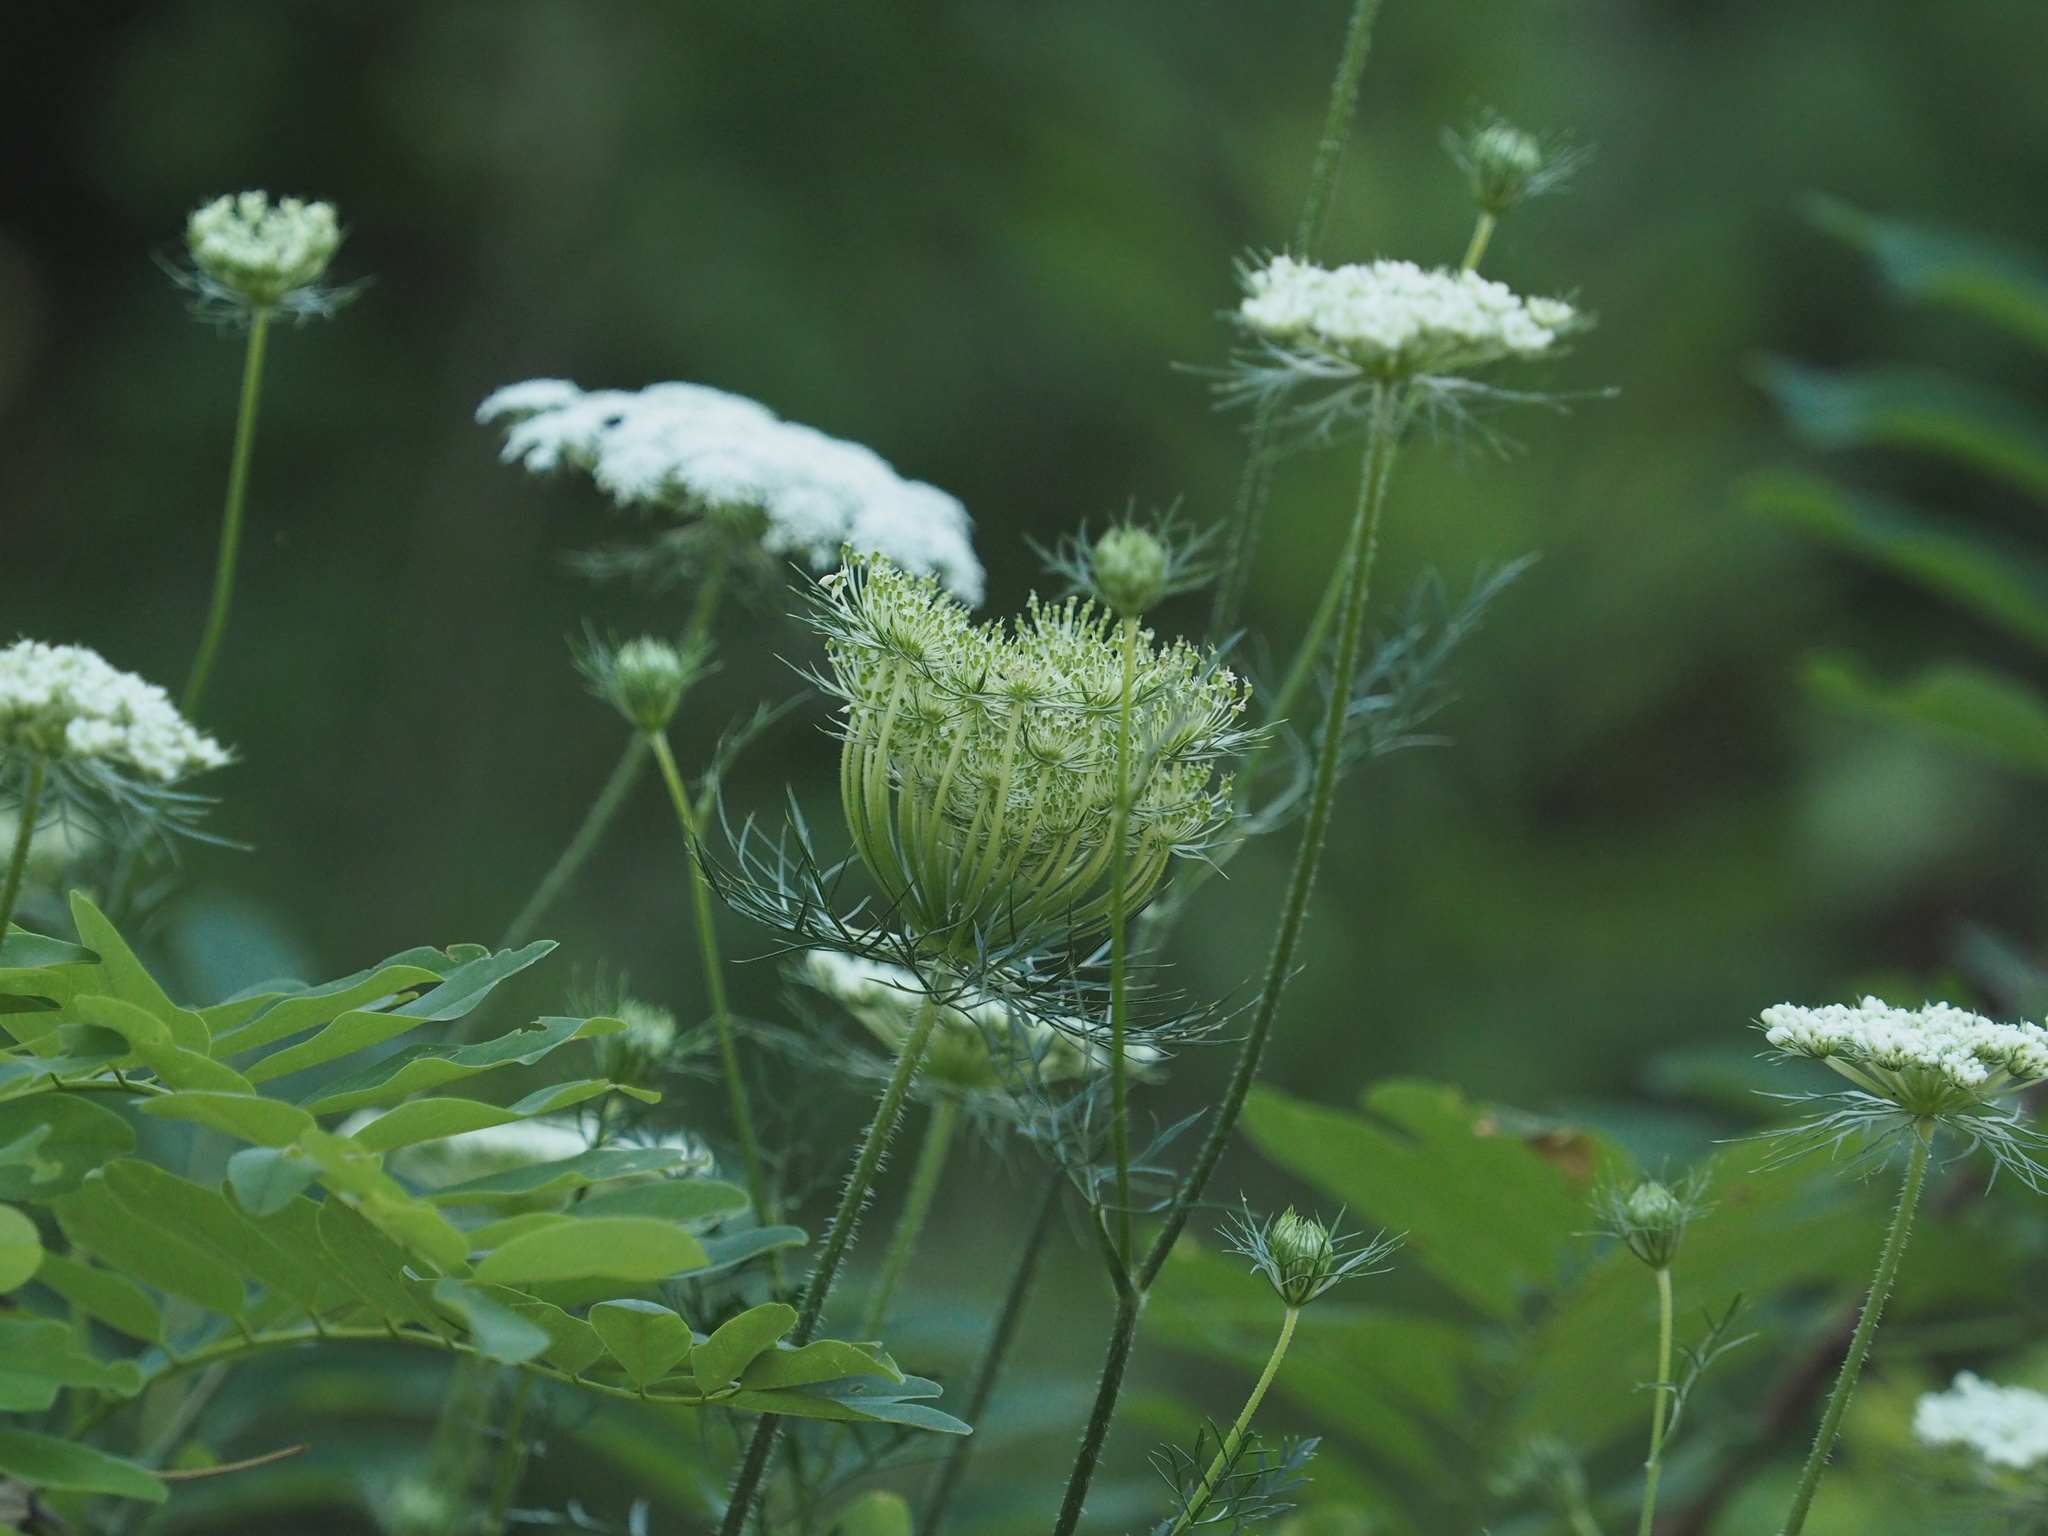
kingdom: Plantae
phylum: Tracheophyta
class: Magnoliopsida
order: Apiales
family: Apiaceae
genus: Daucus
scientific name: Daucus carota
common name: Wild carrot
